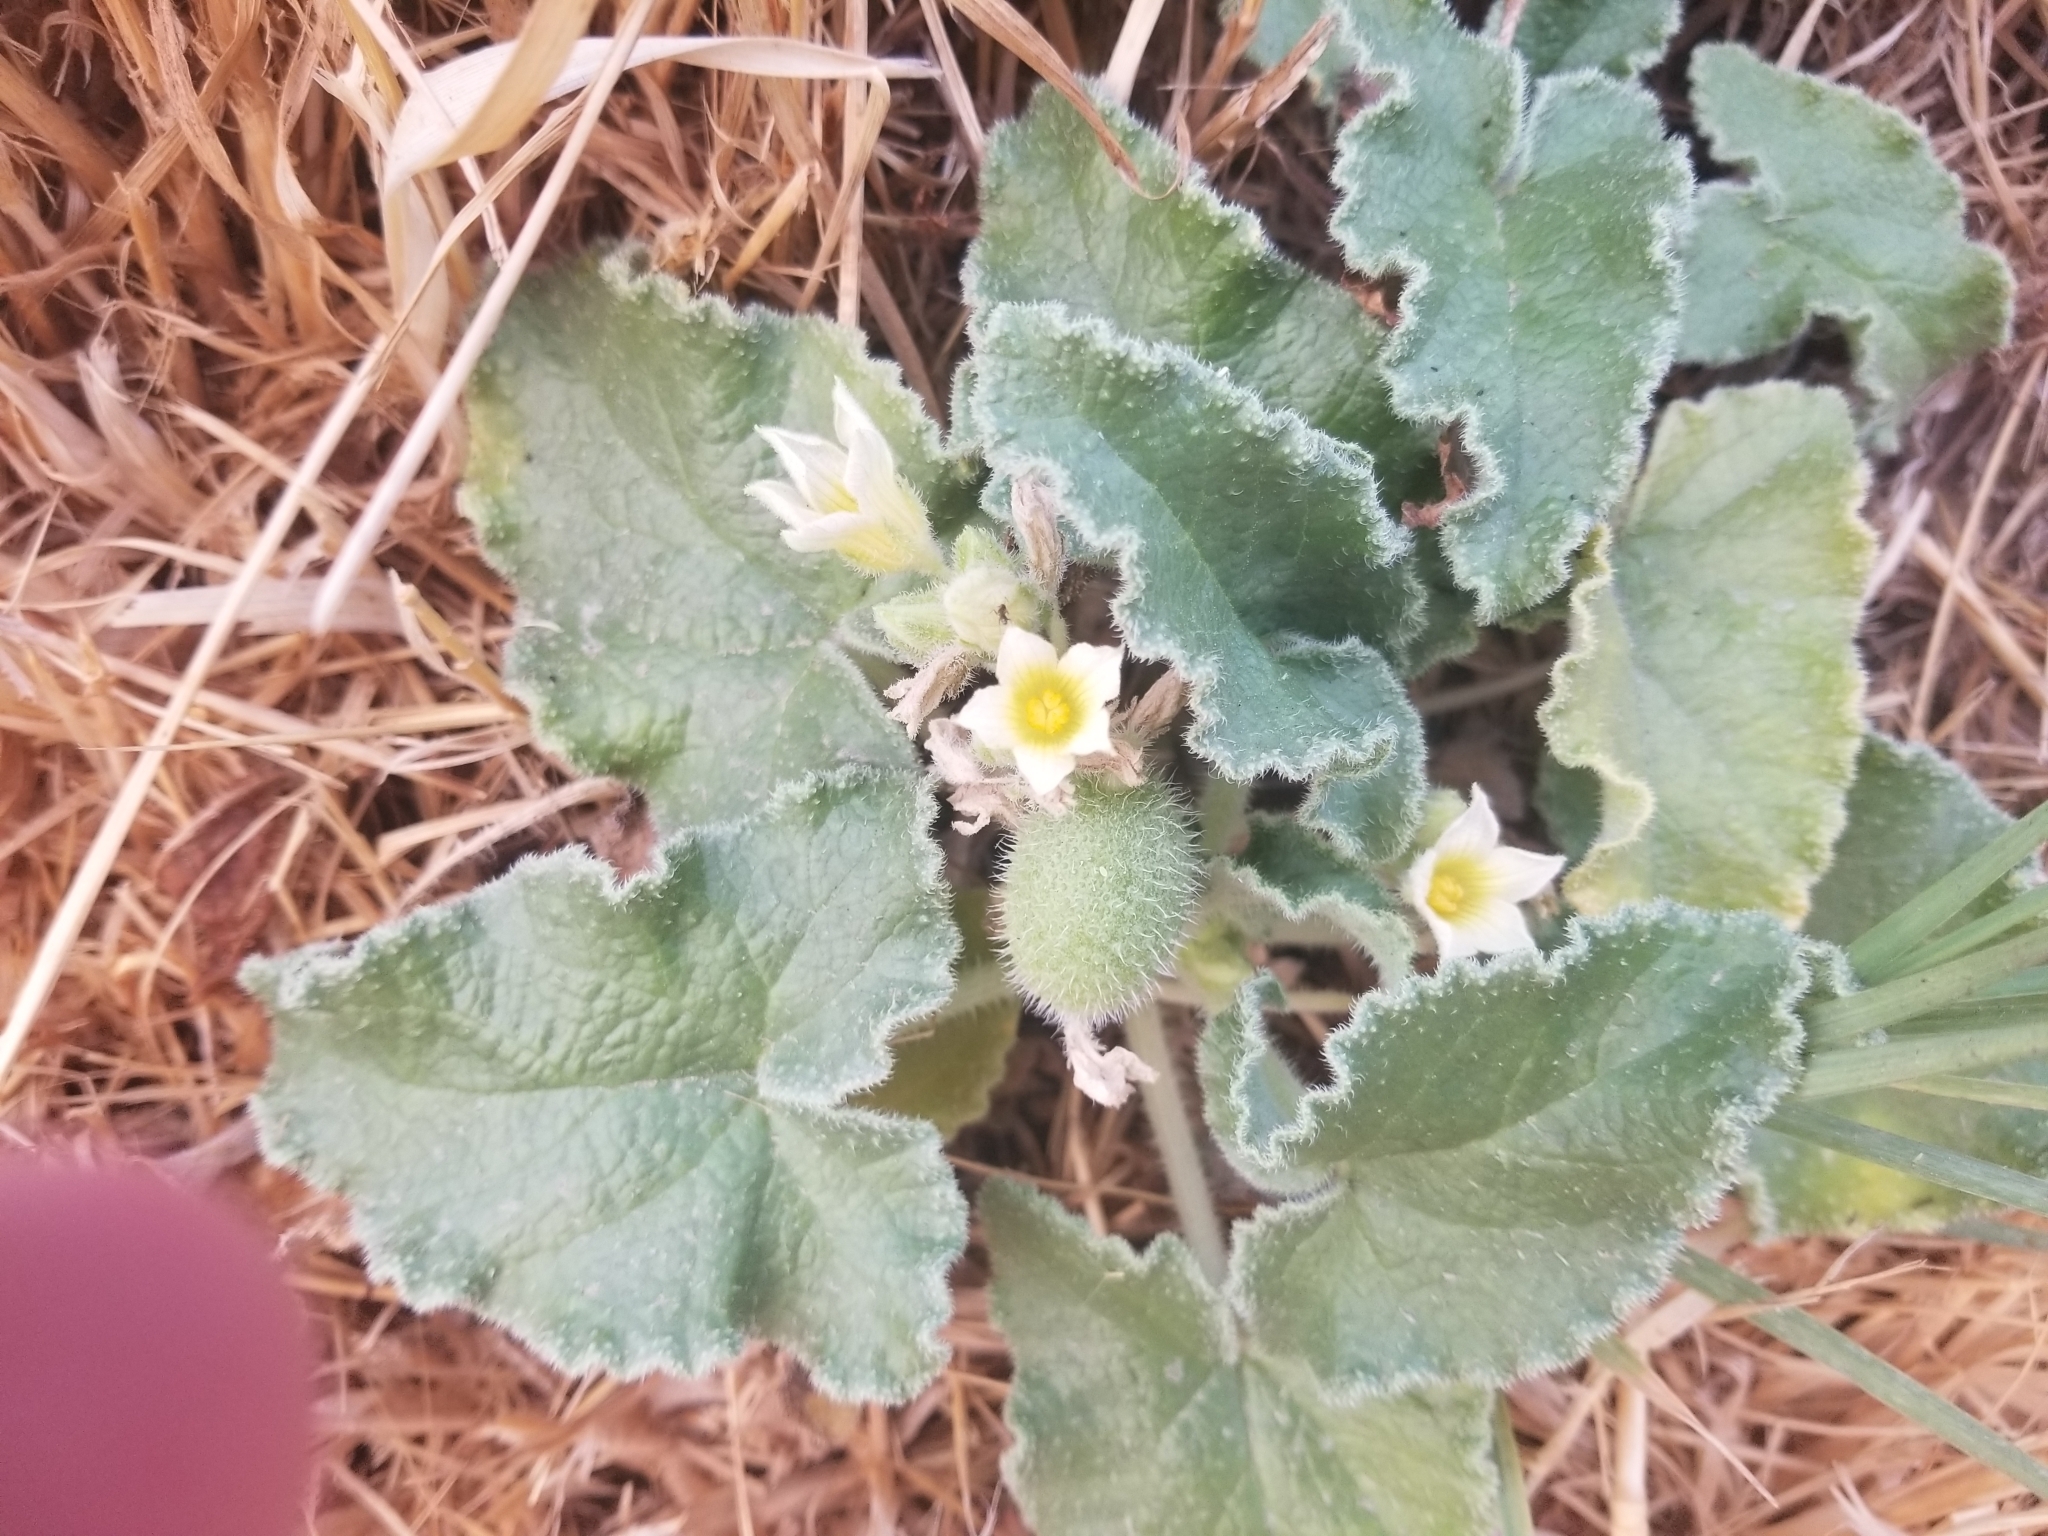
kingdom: Plantae
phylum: Tracheophyta
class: Magnoliopsida
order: Cucurbitales
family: Cucurbitaceae
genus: Ecballium
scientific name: Ecballium elaterium
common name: Squirting cucumber
